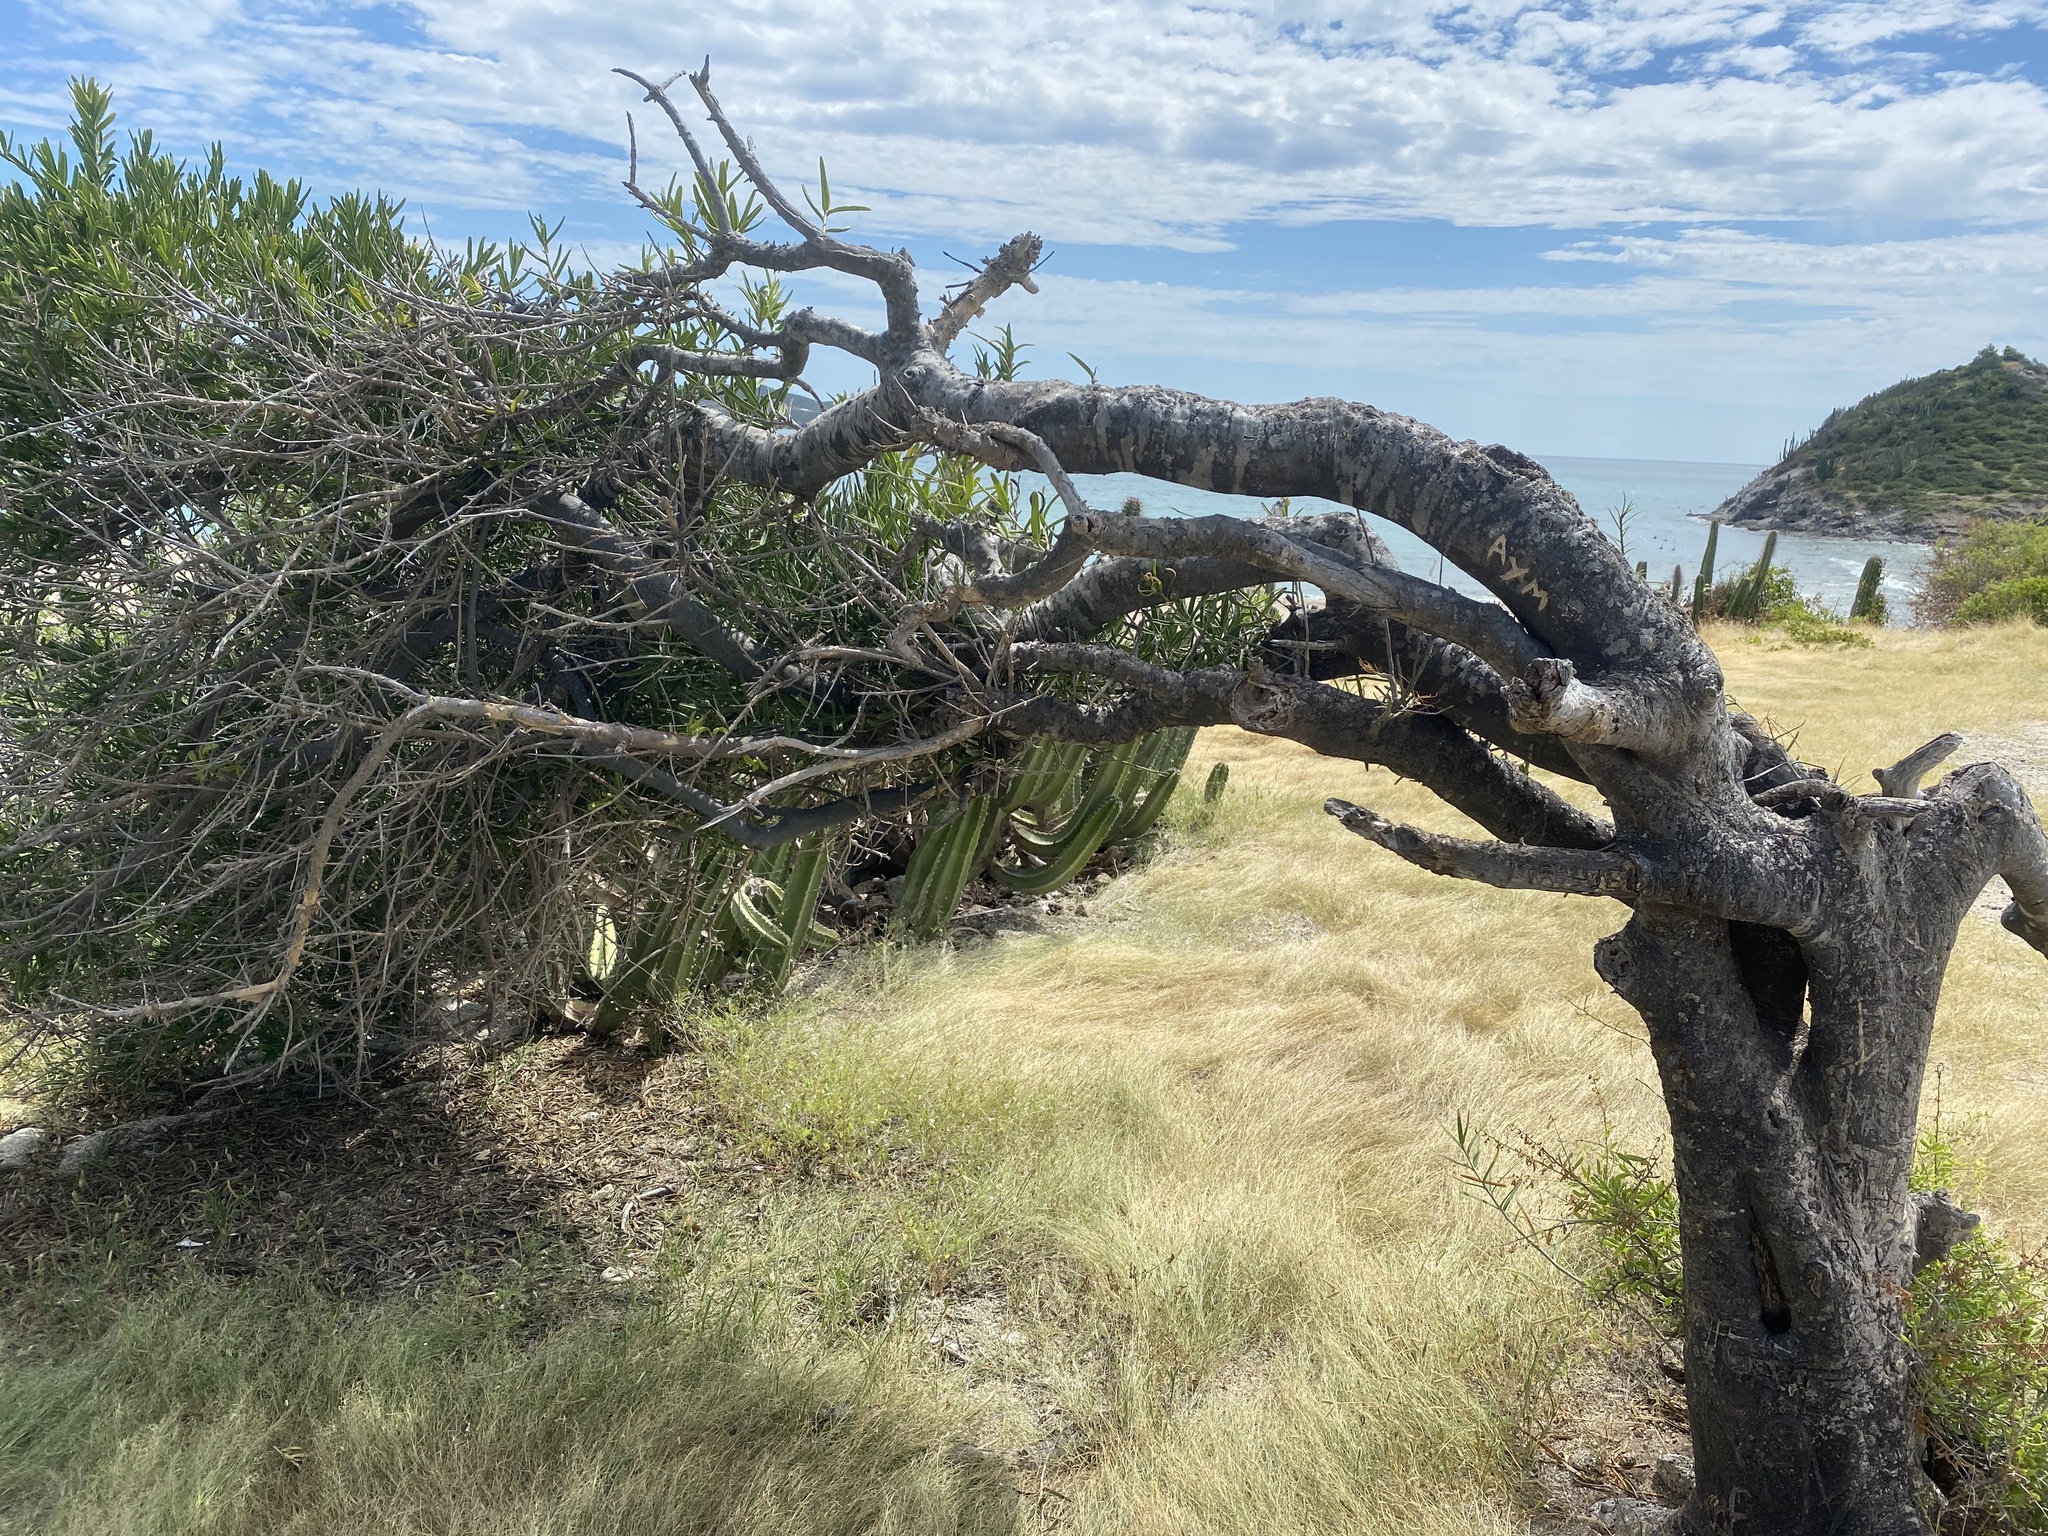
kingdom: Plantae
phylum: Tracheophyta
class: Magnoliopsida
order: Brassicales
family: Stixaceae
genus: Forchhammeria
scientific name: Forchhammeria watsonii
